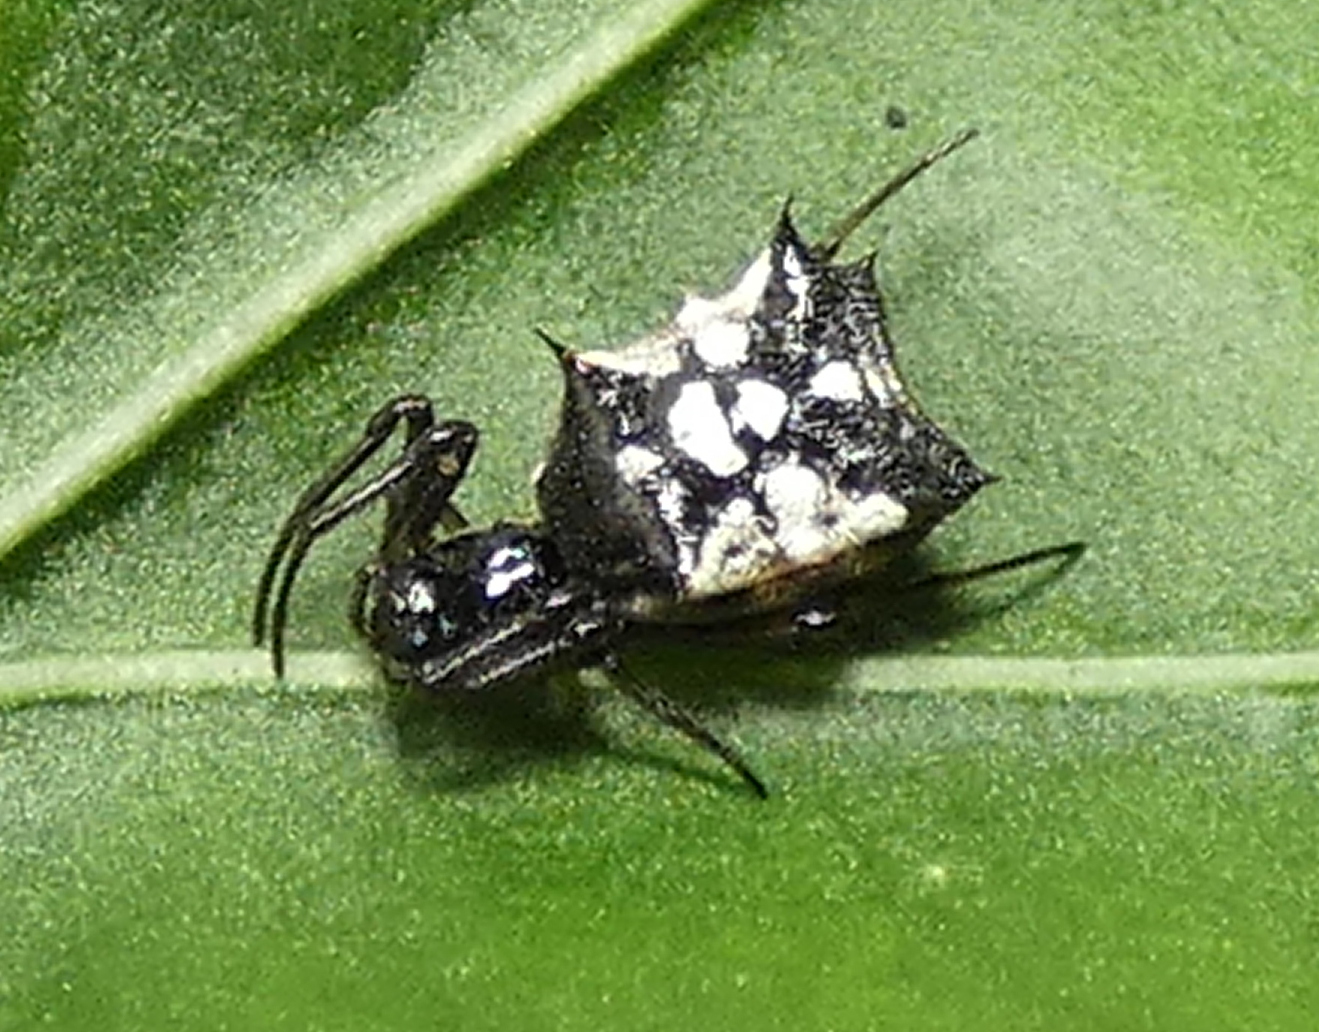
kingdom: Animalia
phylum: Arthropoda
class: Arachnida
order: Araneae
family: Araneidae
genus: Micrathena
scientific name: Micrathena picta
